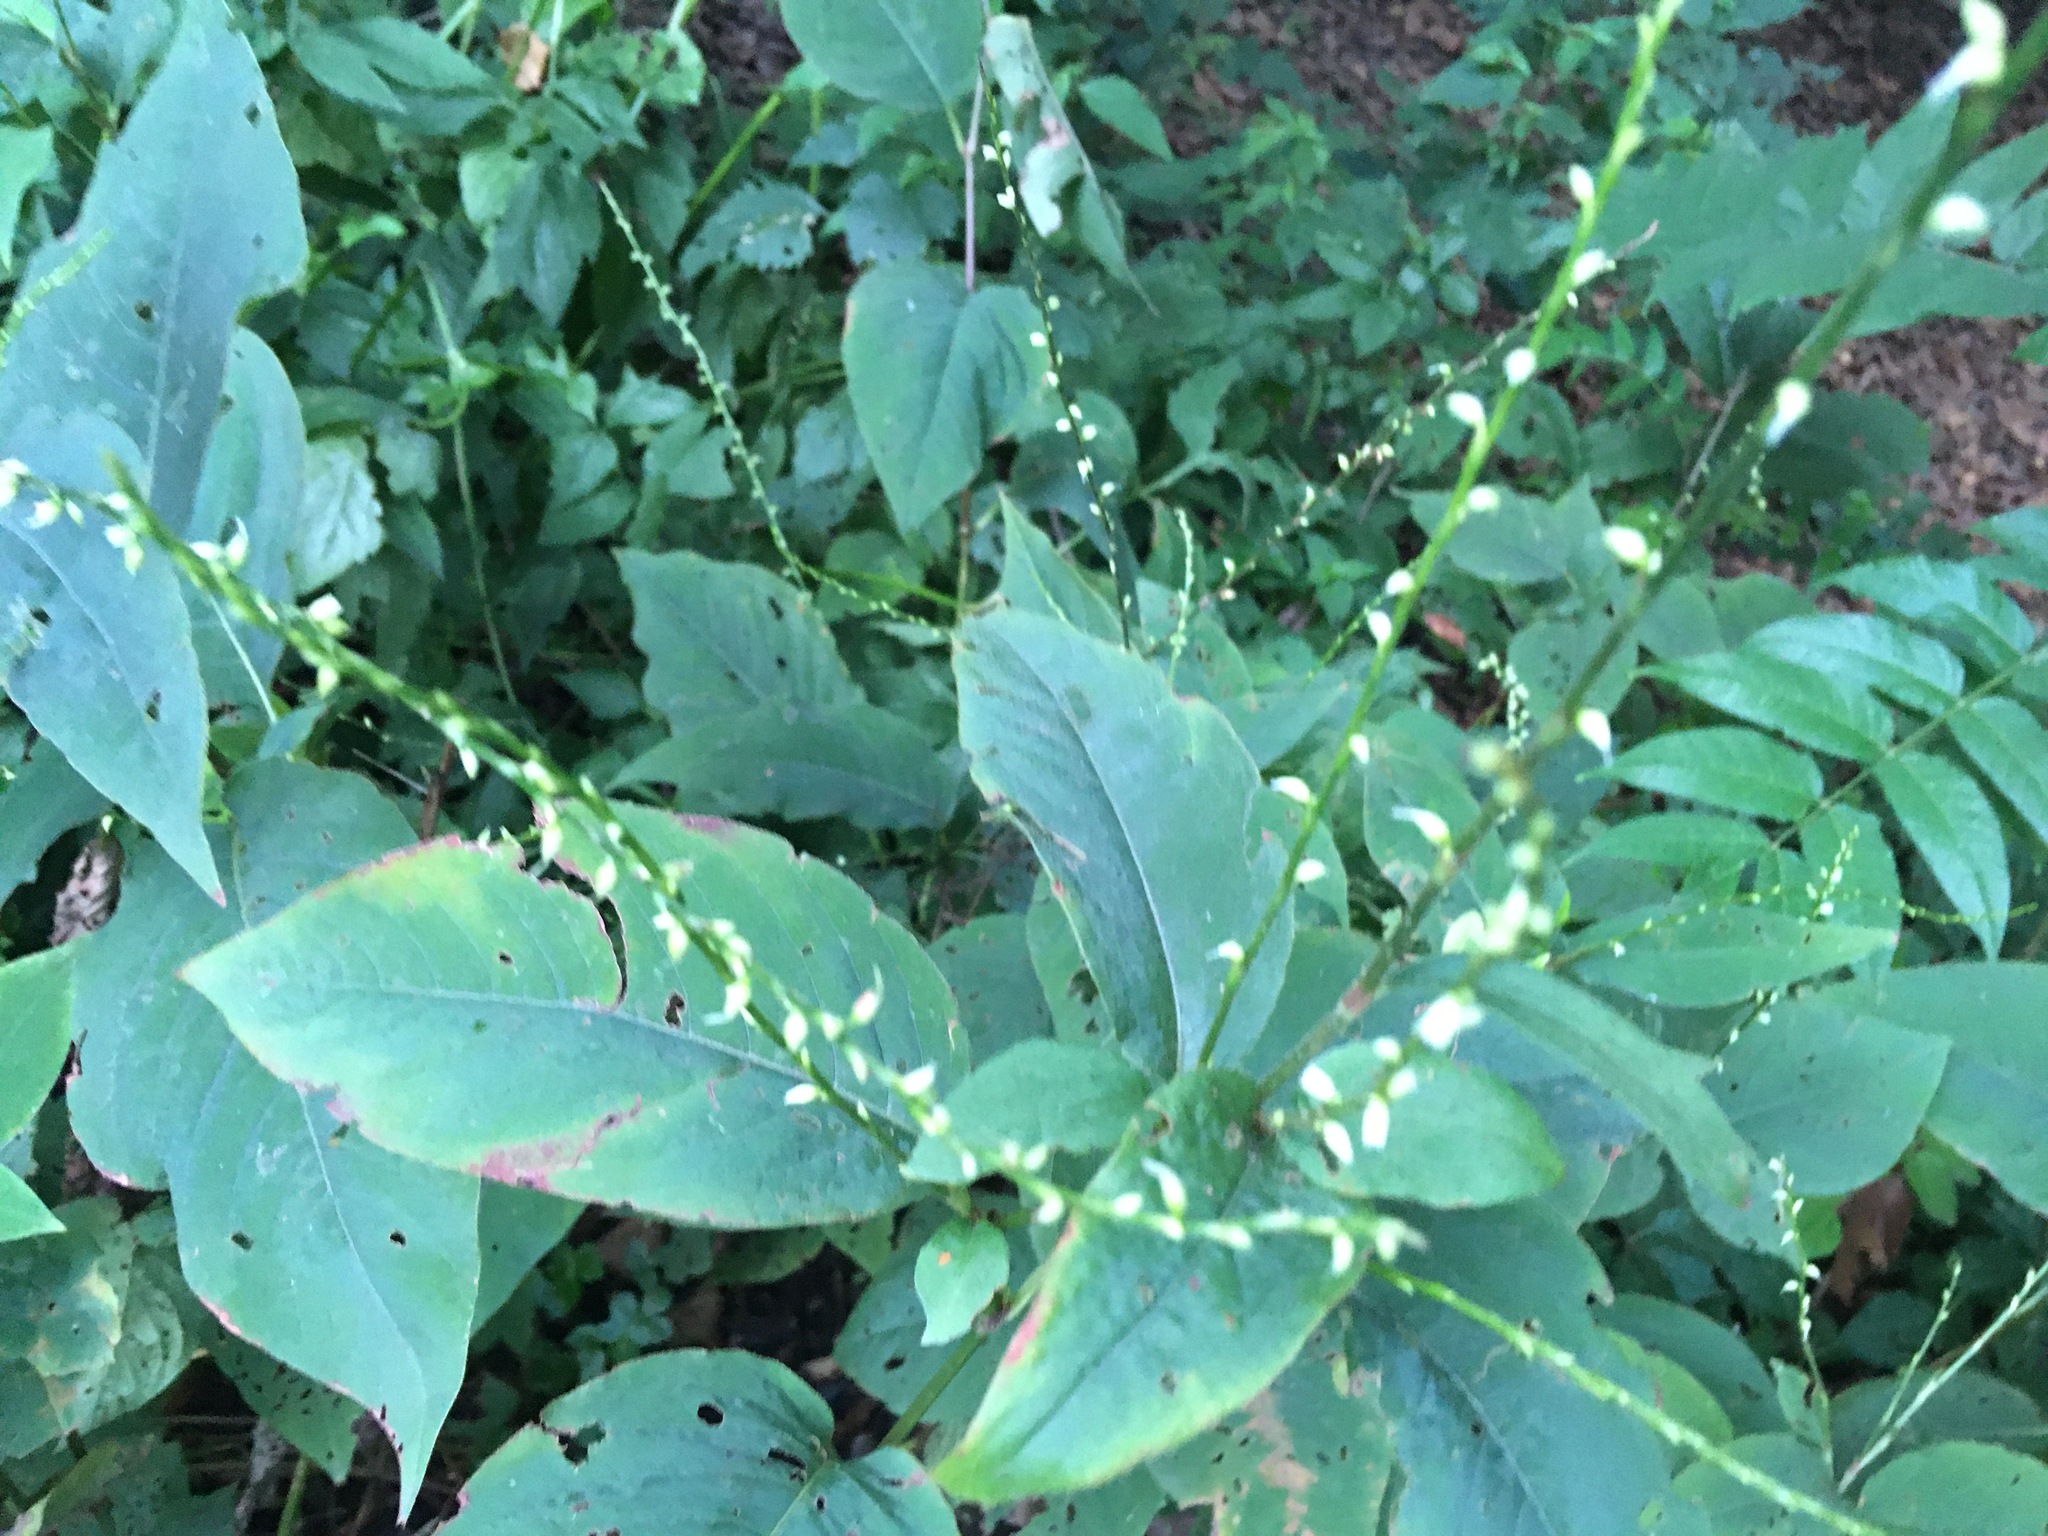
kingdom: Plantae
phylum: Tracheophyta
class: Magnoliopsida
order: Caryophyllales
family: Polygonaceae
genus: Persicaria
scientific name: Persicaria virginiana
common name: Jumpseed
